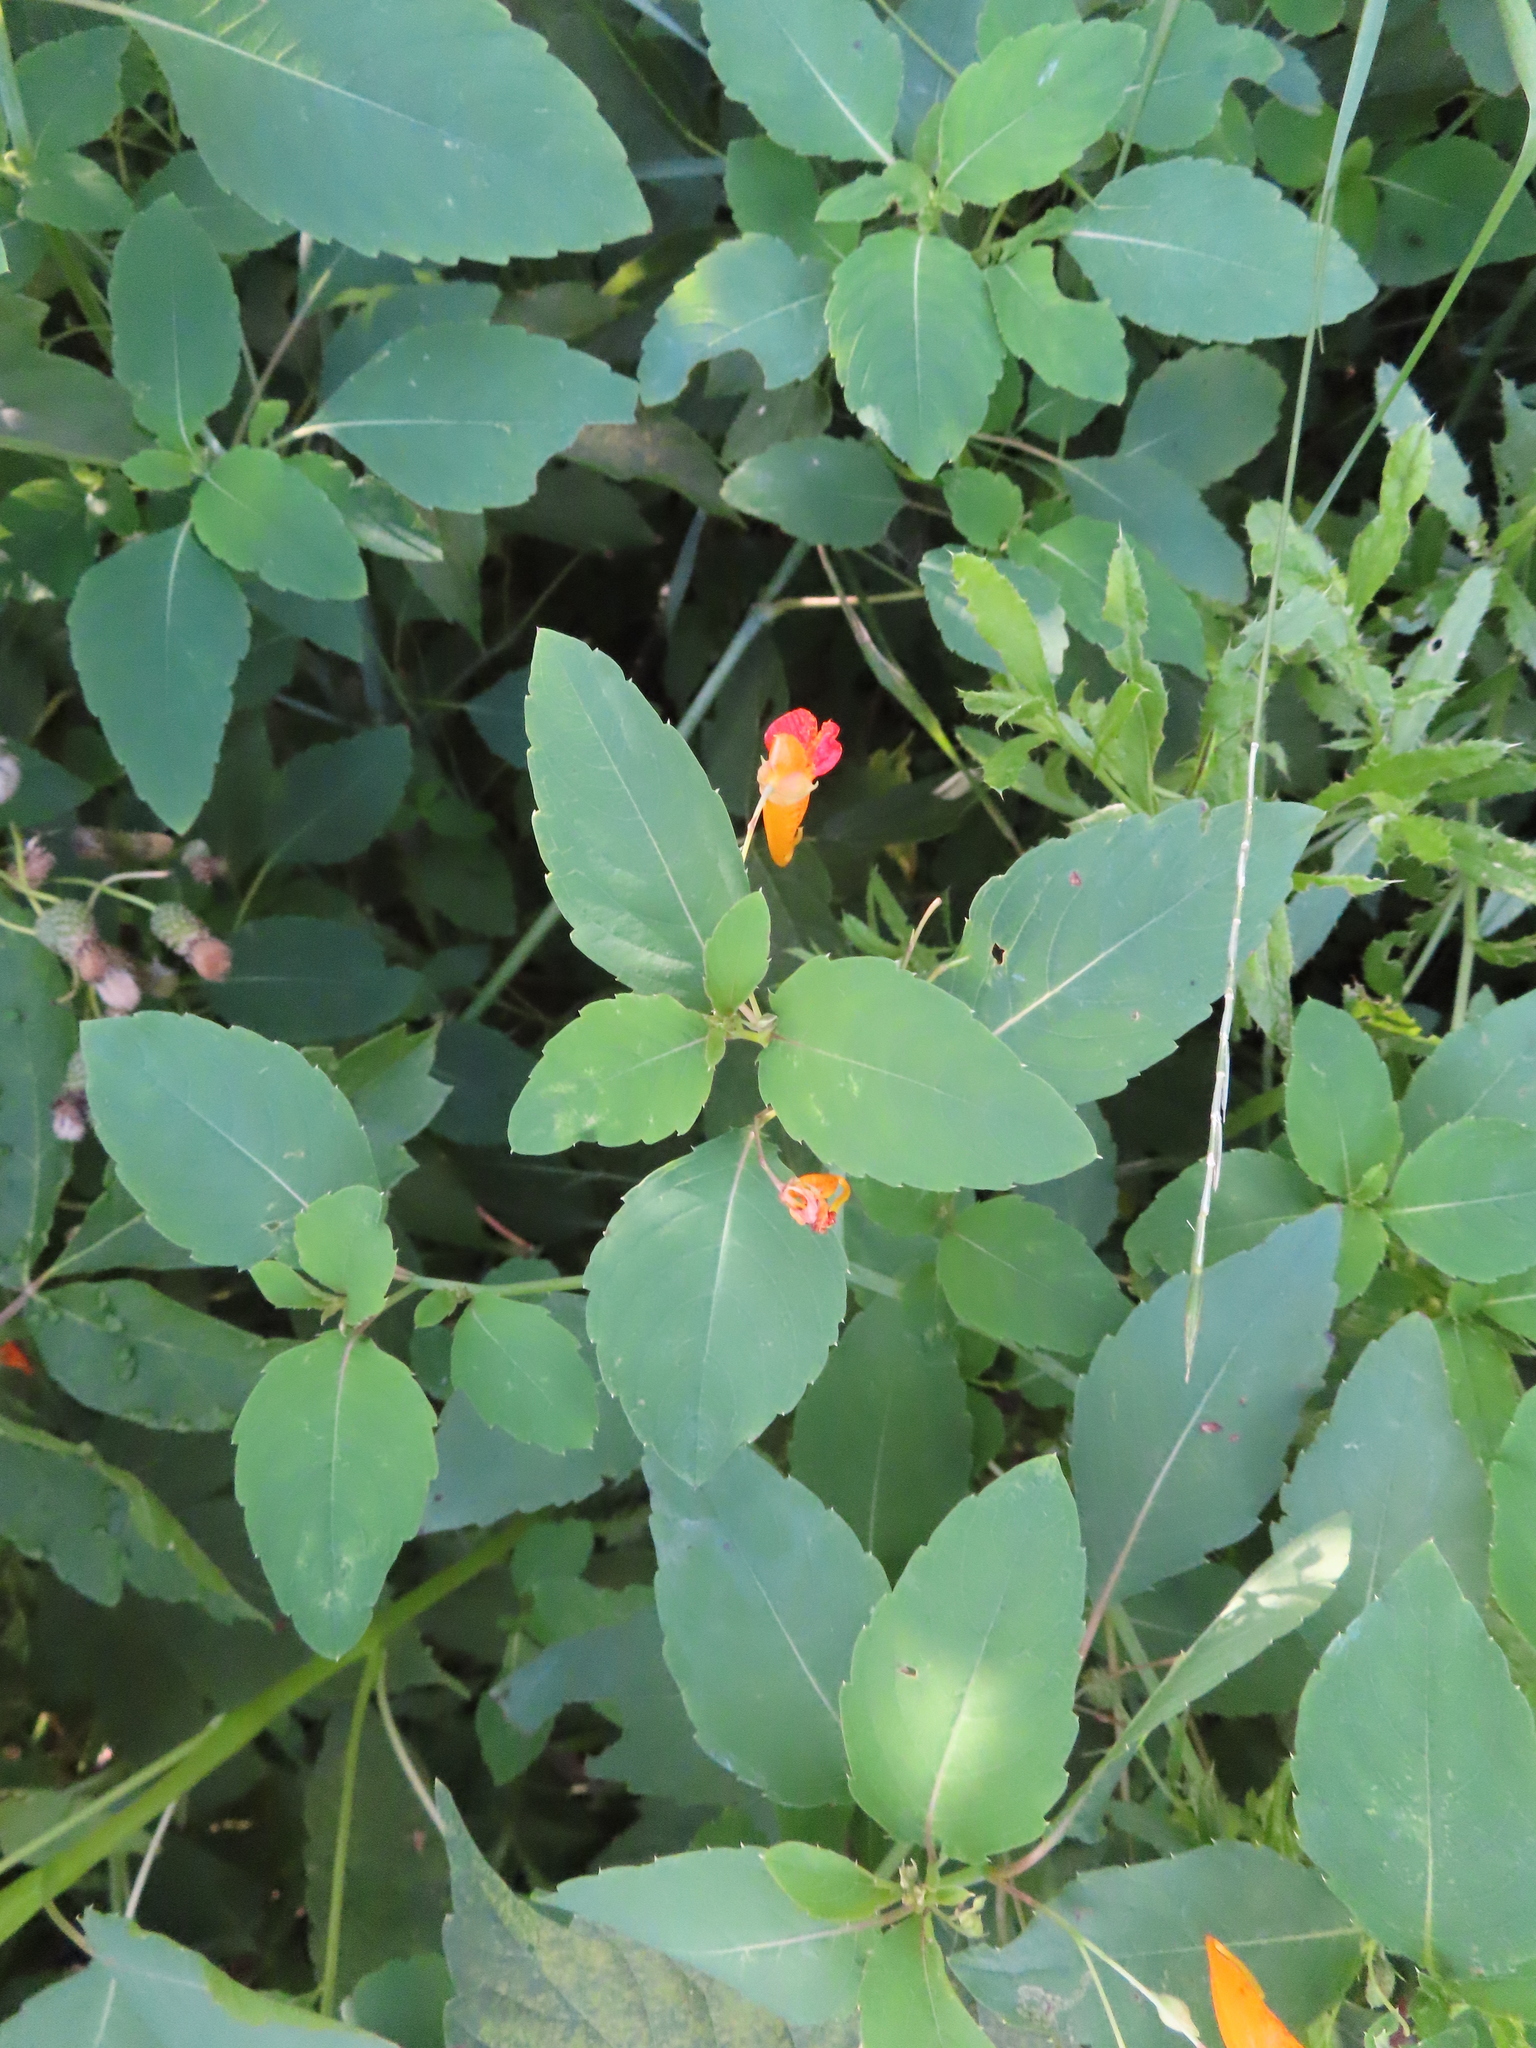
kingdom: Plantae
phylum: Tracheophyta
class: Magnoliopsida
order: Ericales
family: Balsaminaceae
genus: Impatiens
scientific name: Impatiens capensis
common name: Orange balsam
